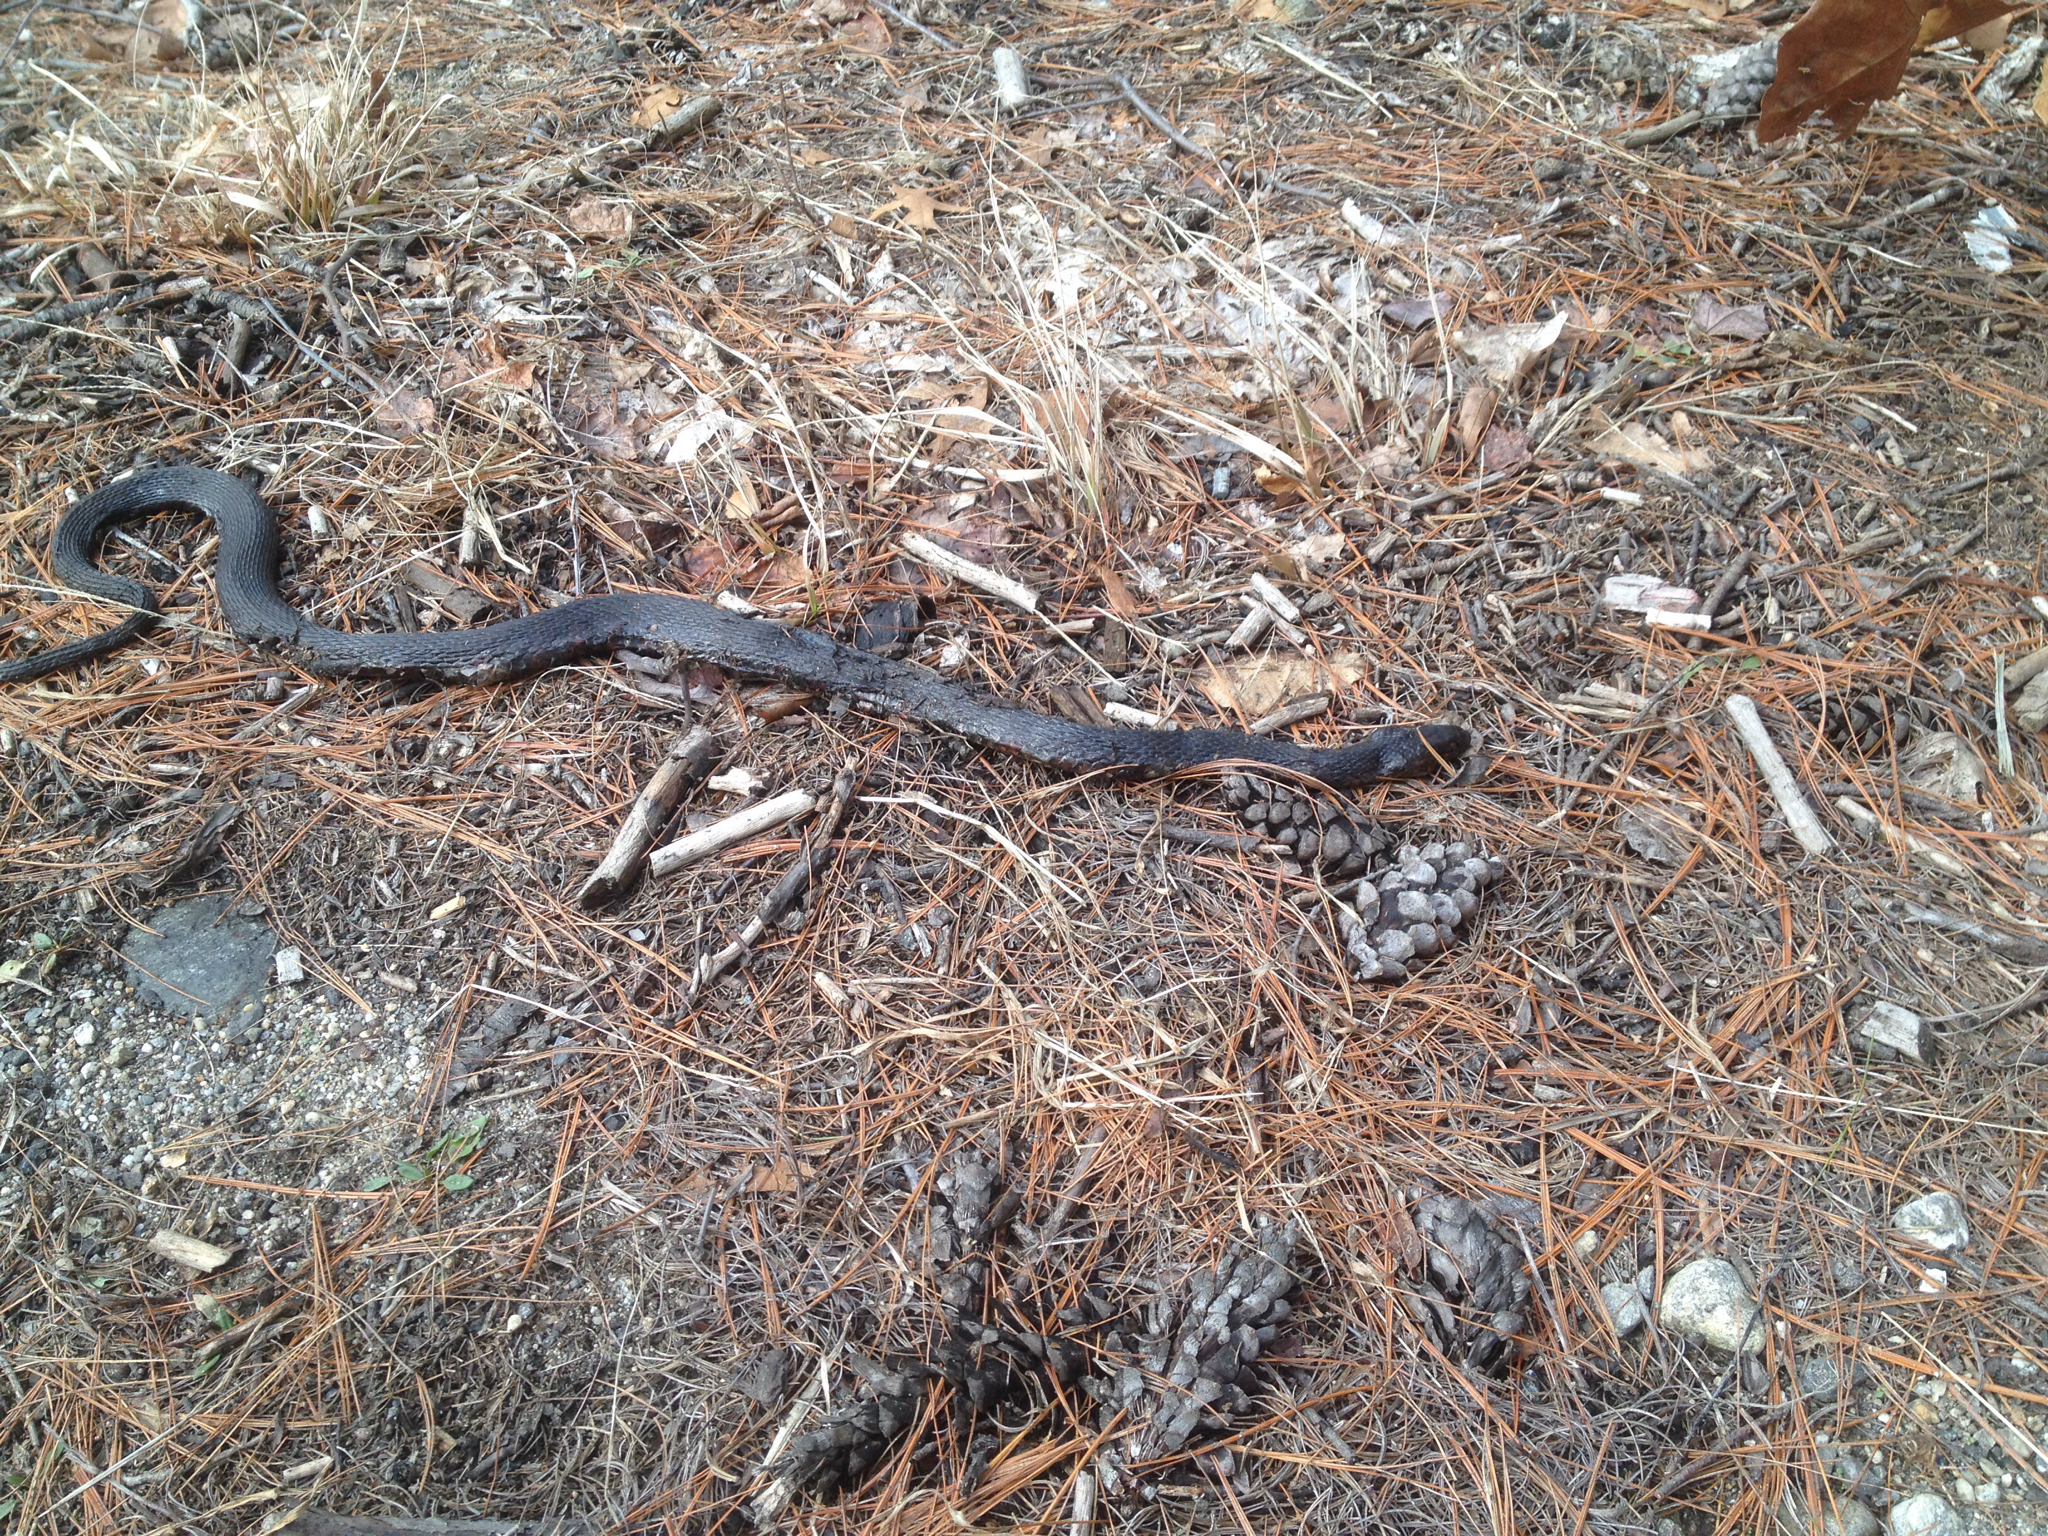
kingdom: Animalia
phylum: Chordata
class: Squamata
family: Colubridae
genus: Nerodia
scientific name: Nerodia sipedon
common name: Northern water snake
